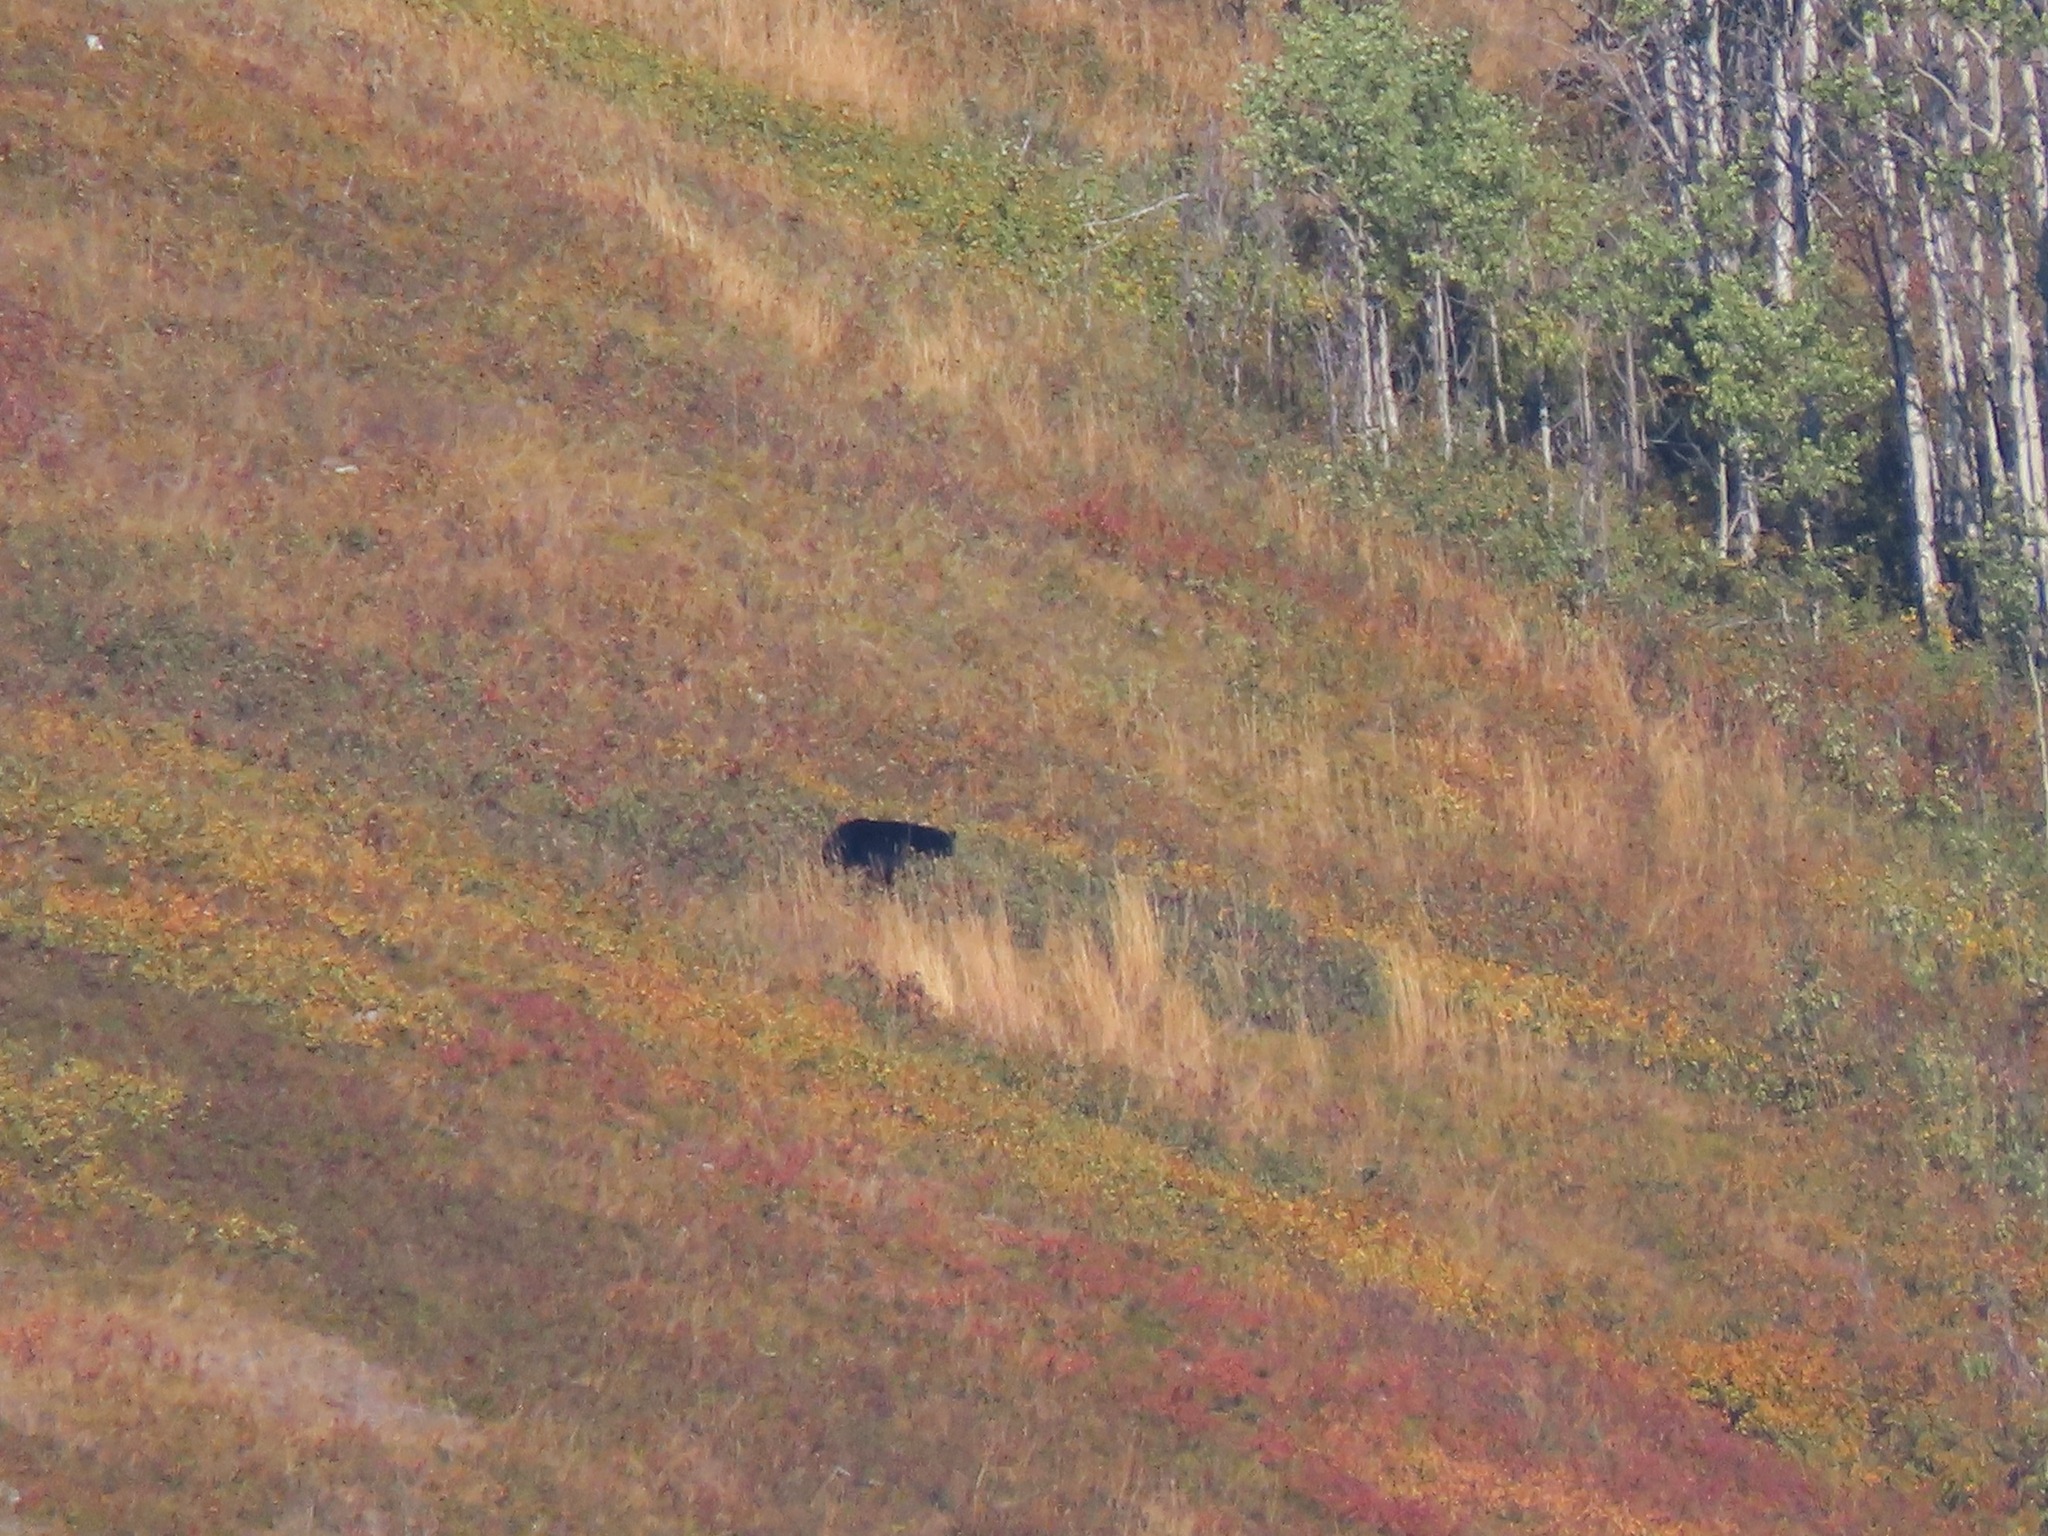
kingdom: Animalia
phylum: Chordata
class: Mammalia
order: Carnivora
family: Ursidae
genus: Ursus
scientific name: Ursus americanus
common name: American black bear
